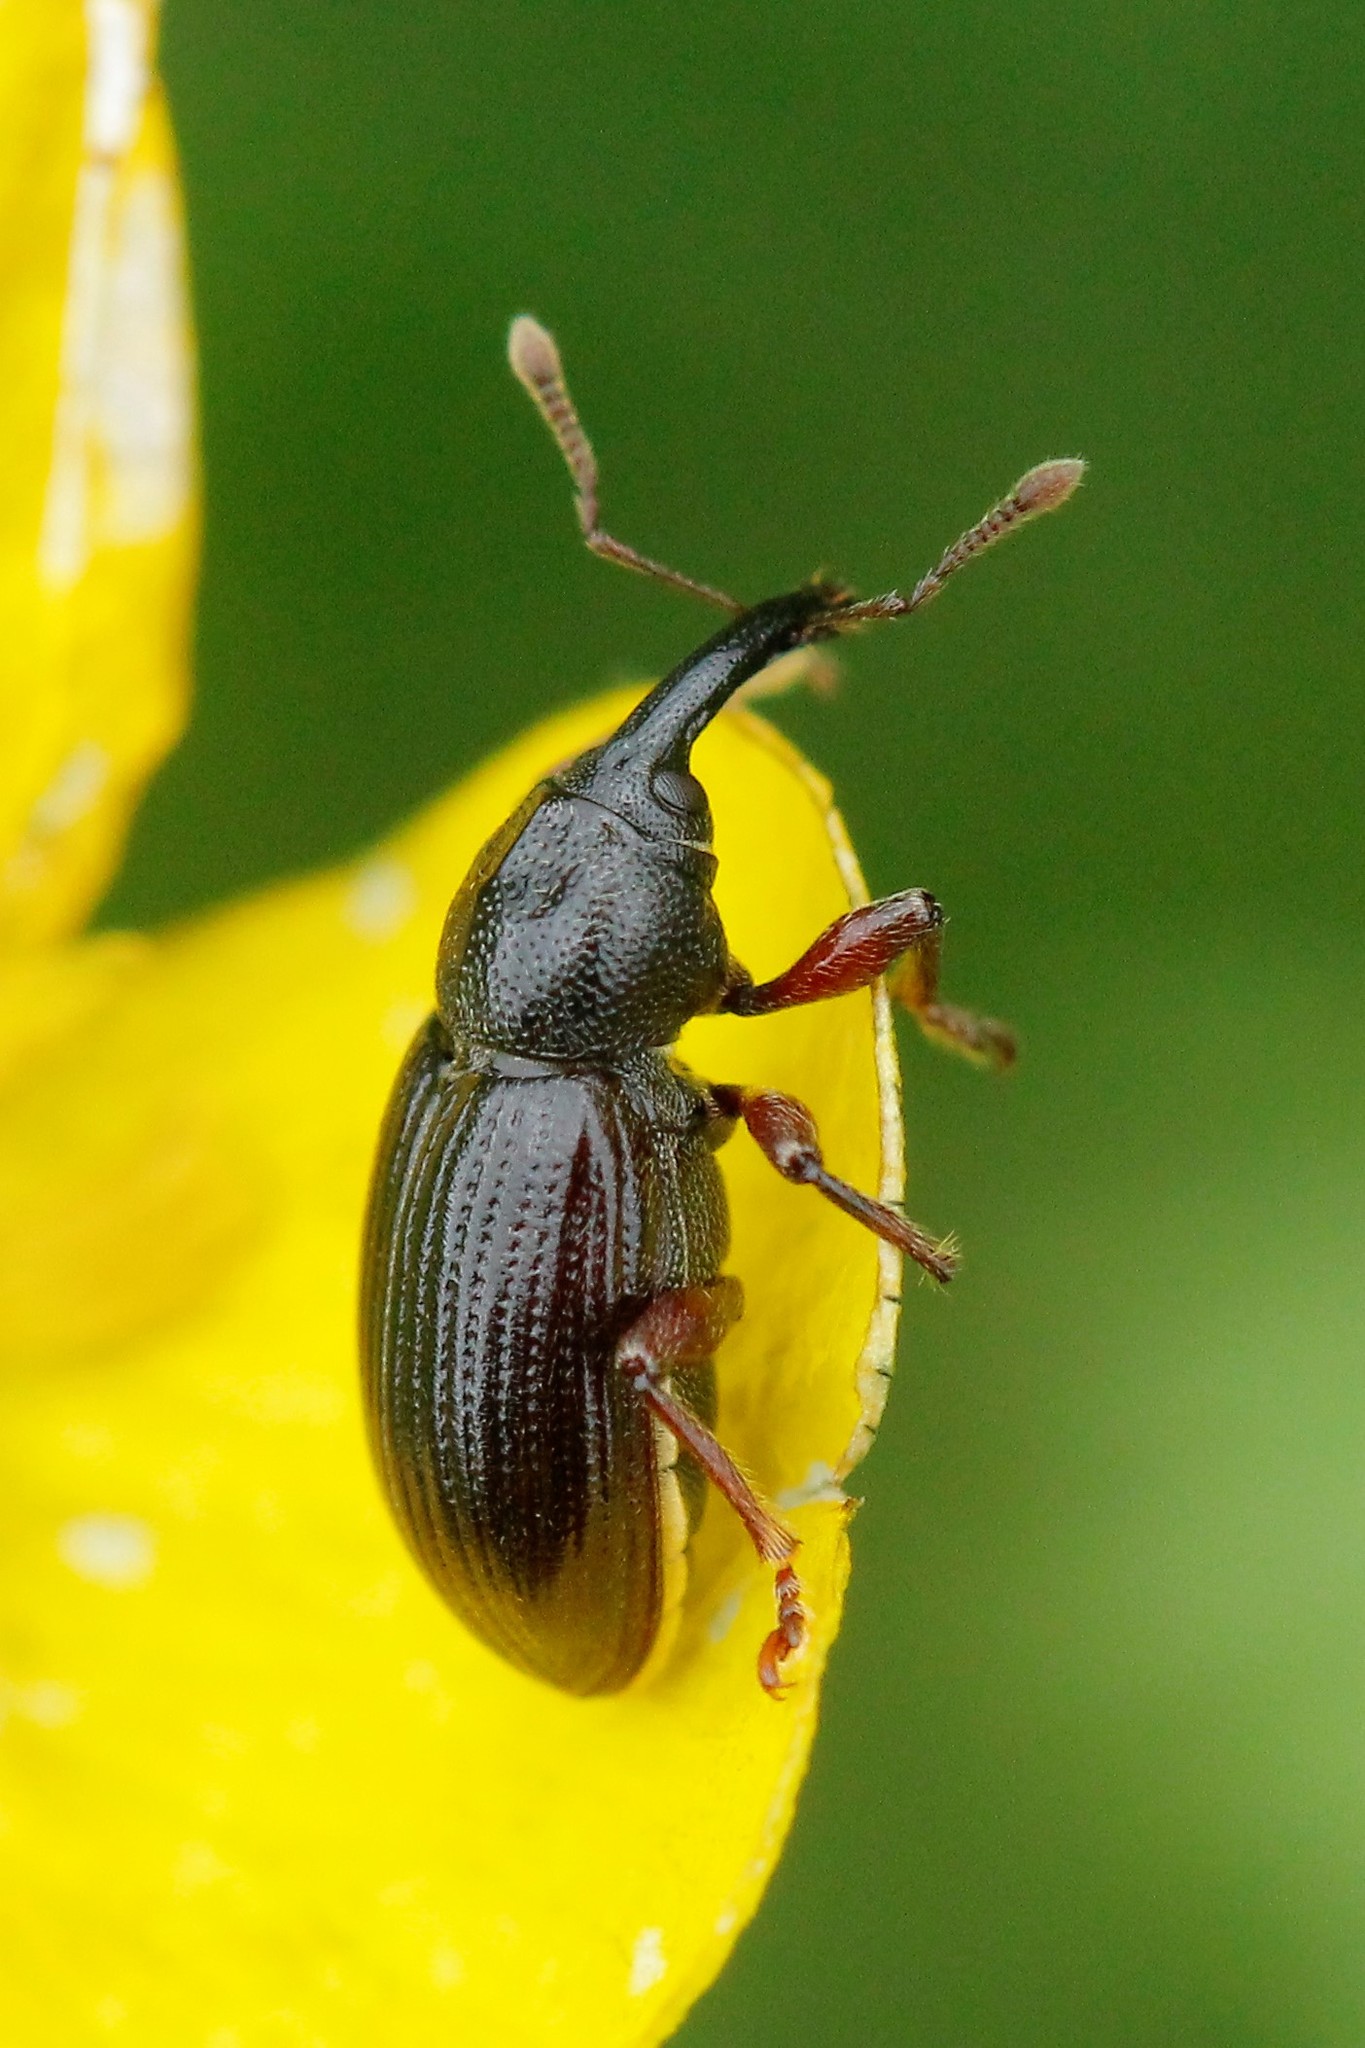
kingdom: Animalia
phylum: Arthropoda
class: Insecta
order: Coleoptera
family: Brachyceridae
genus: Notaris
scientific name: Notaris aethiops
